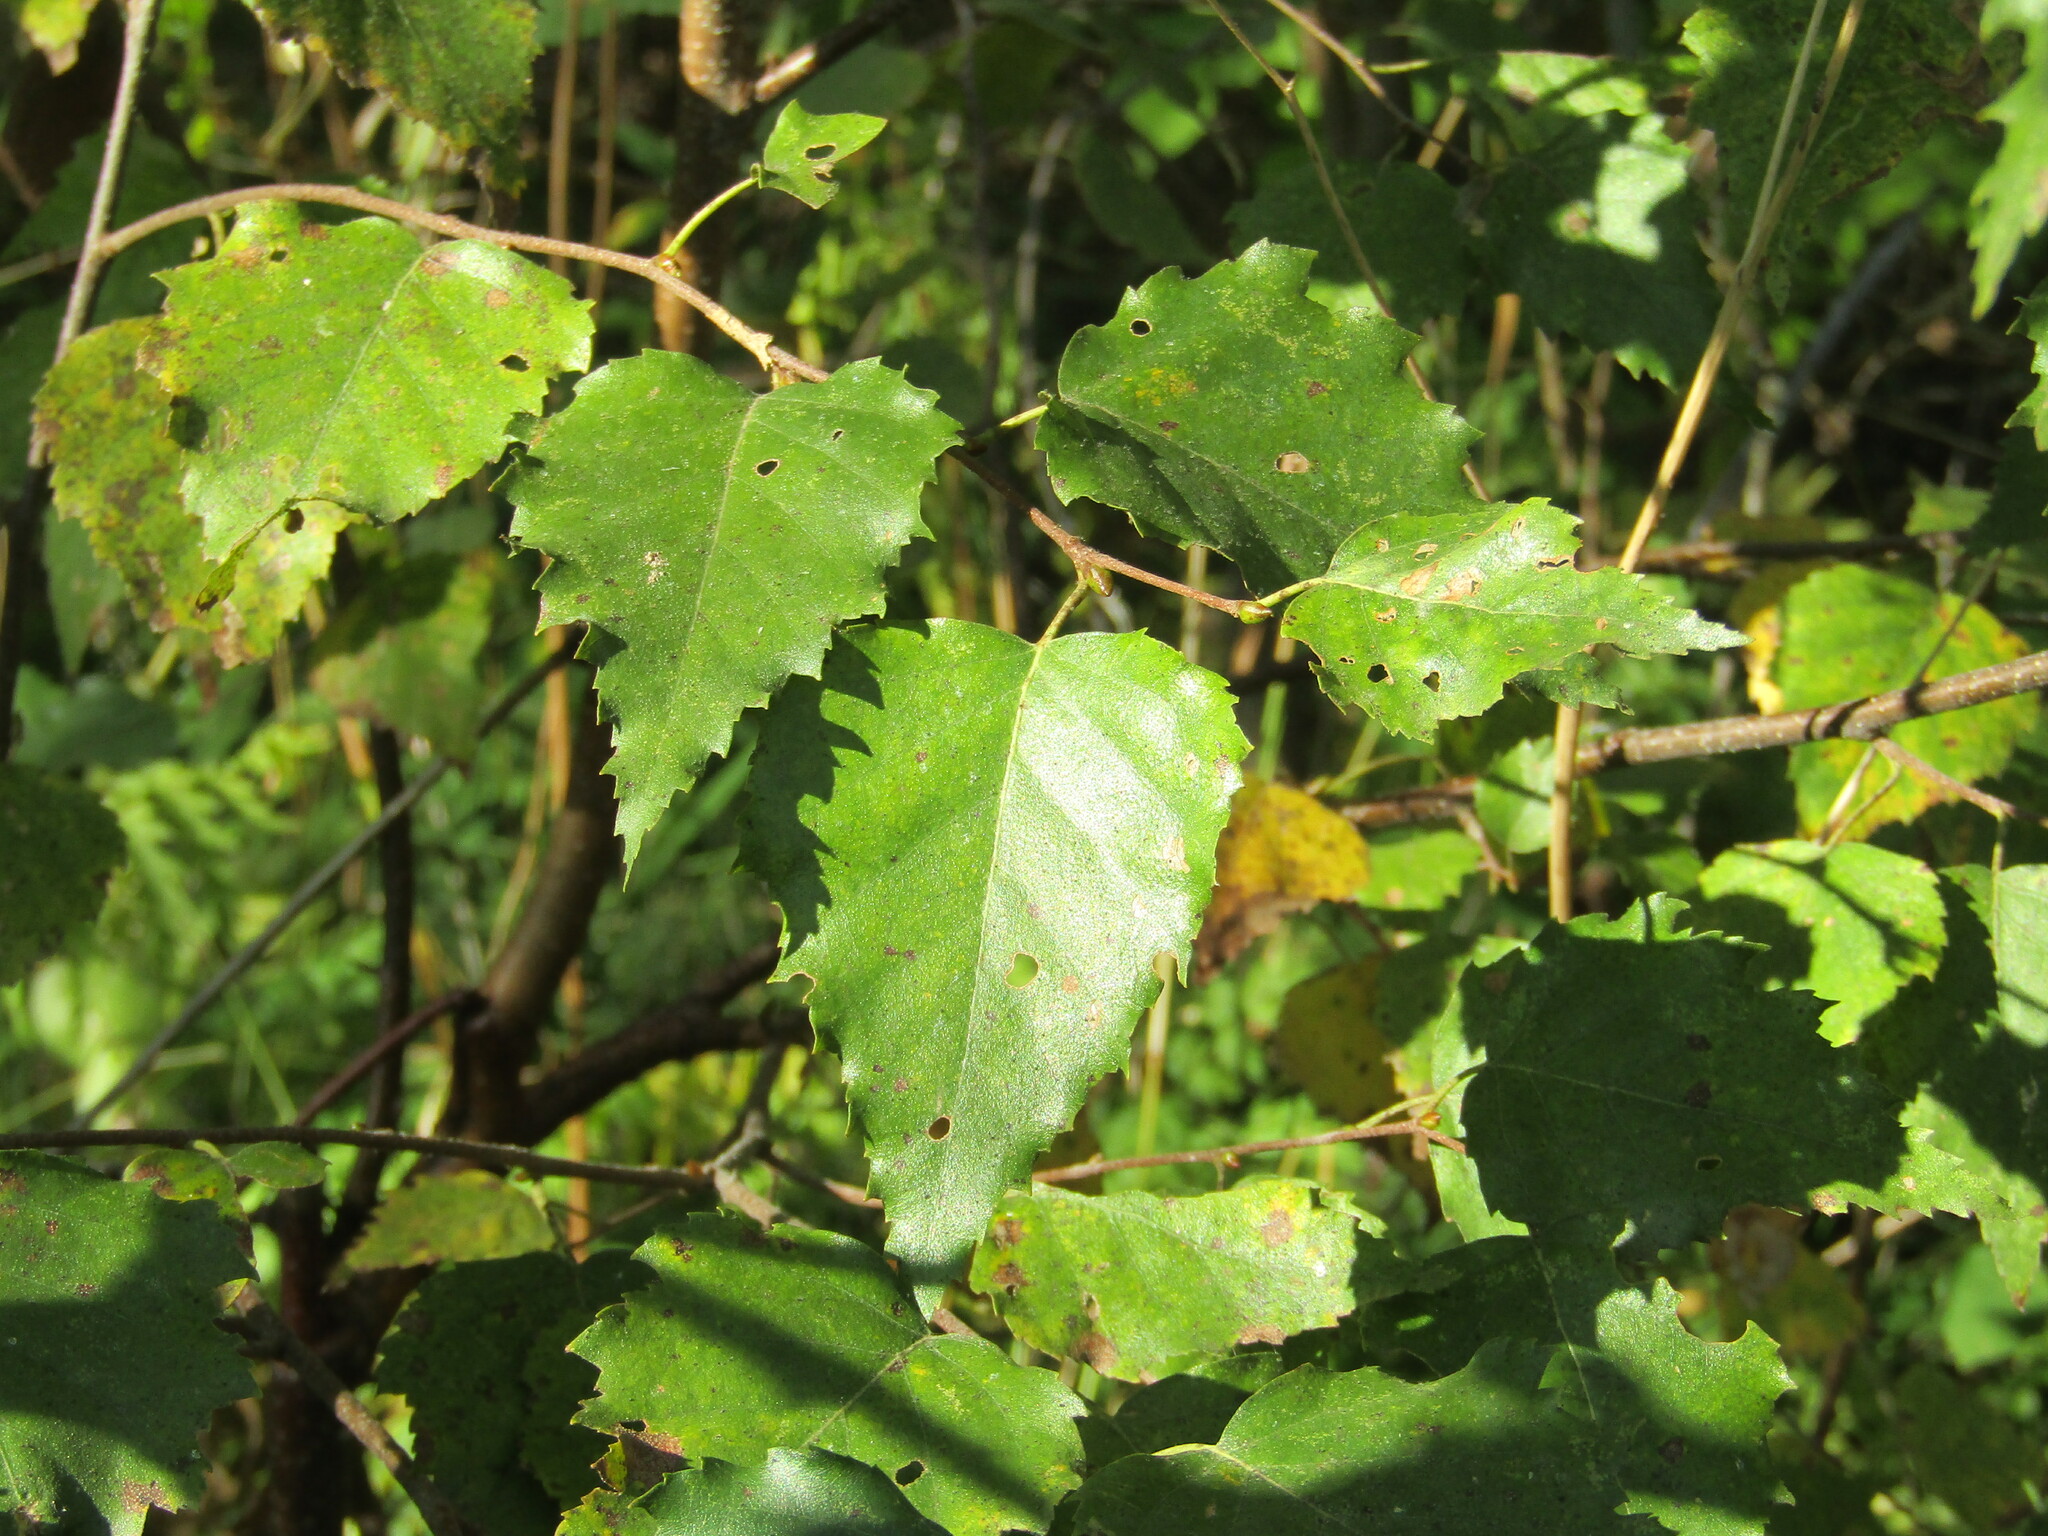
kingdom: Plantae
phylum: Tracheophyta
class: Magnoliopsida
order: Fagales
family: Betulaceae
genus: Betula
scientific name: Betula pendula
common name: Silver birch
